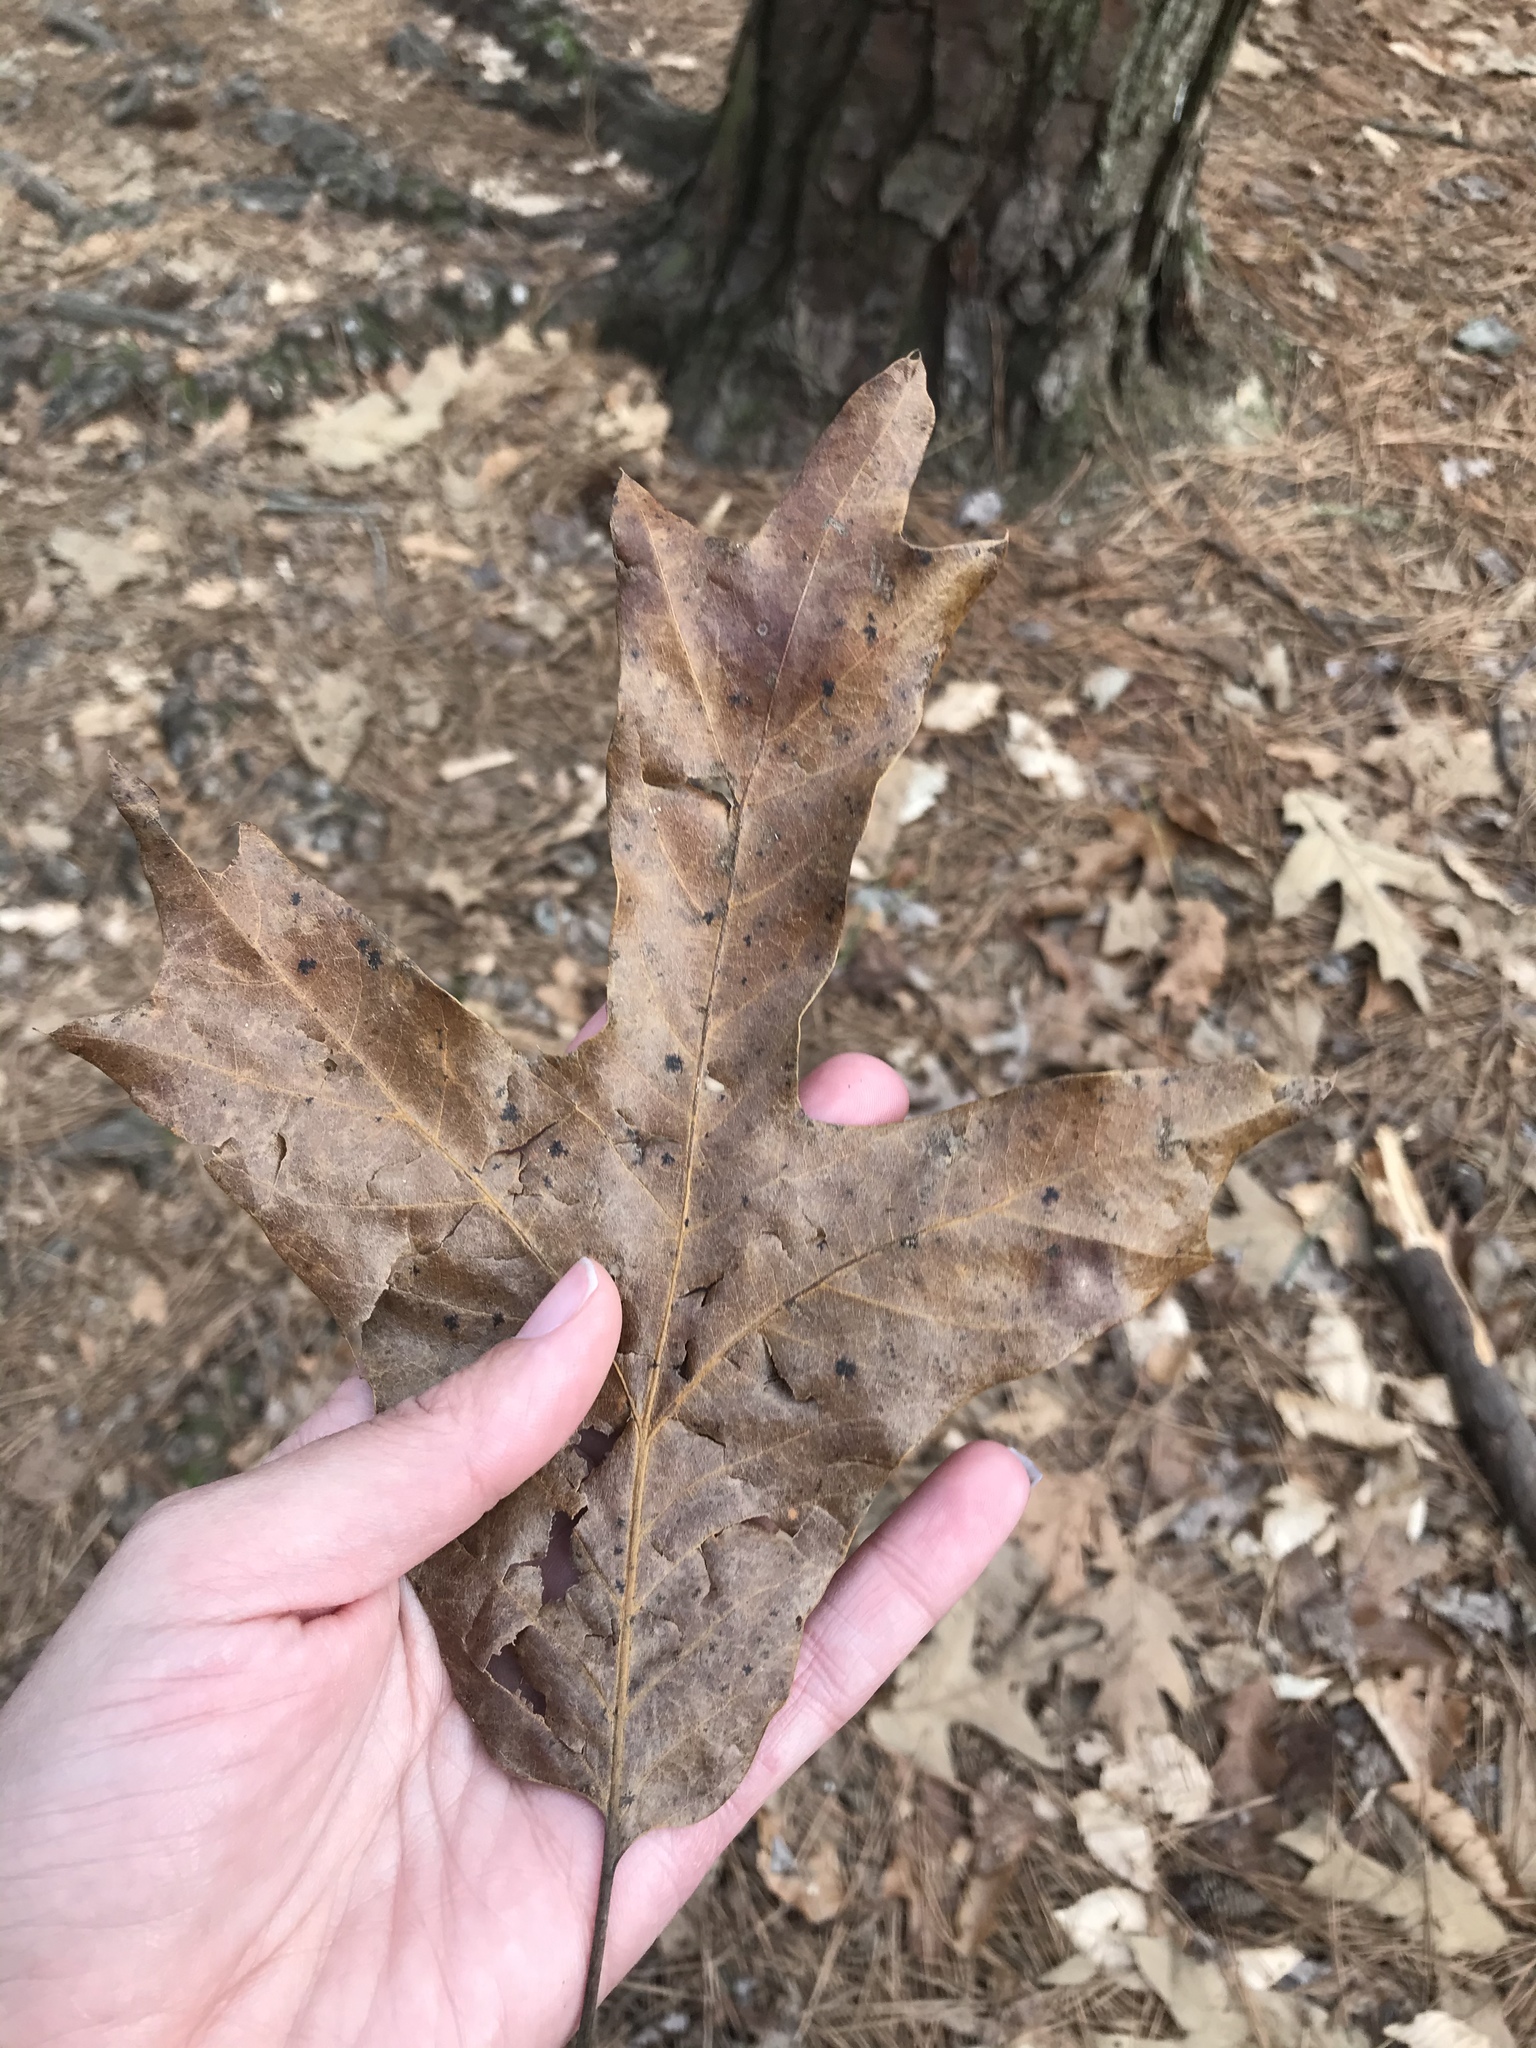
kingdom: Plantae
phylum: Tracheophyta
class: Magnoliopsida
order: Fagales
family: Fagaceae
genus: Quercus
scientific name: Quercus falcata
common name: Southern red oak
